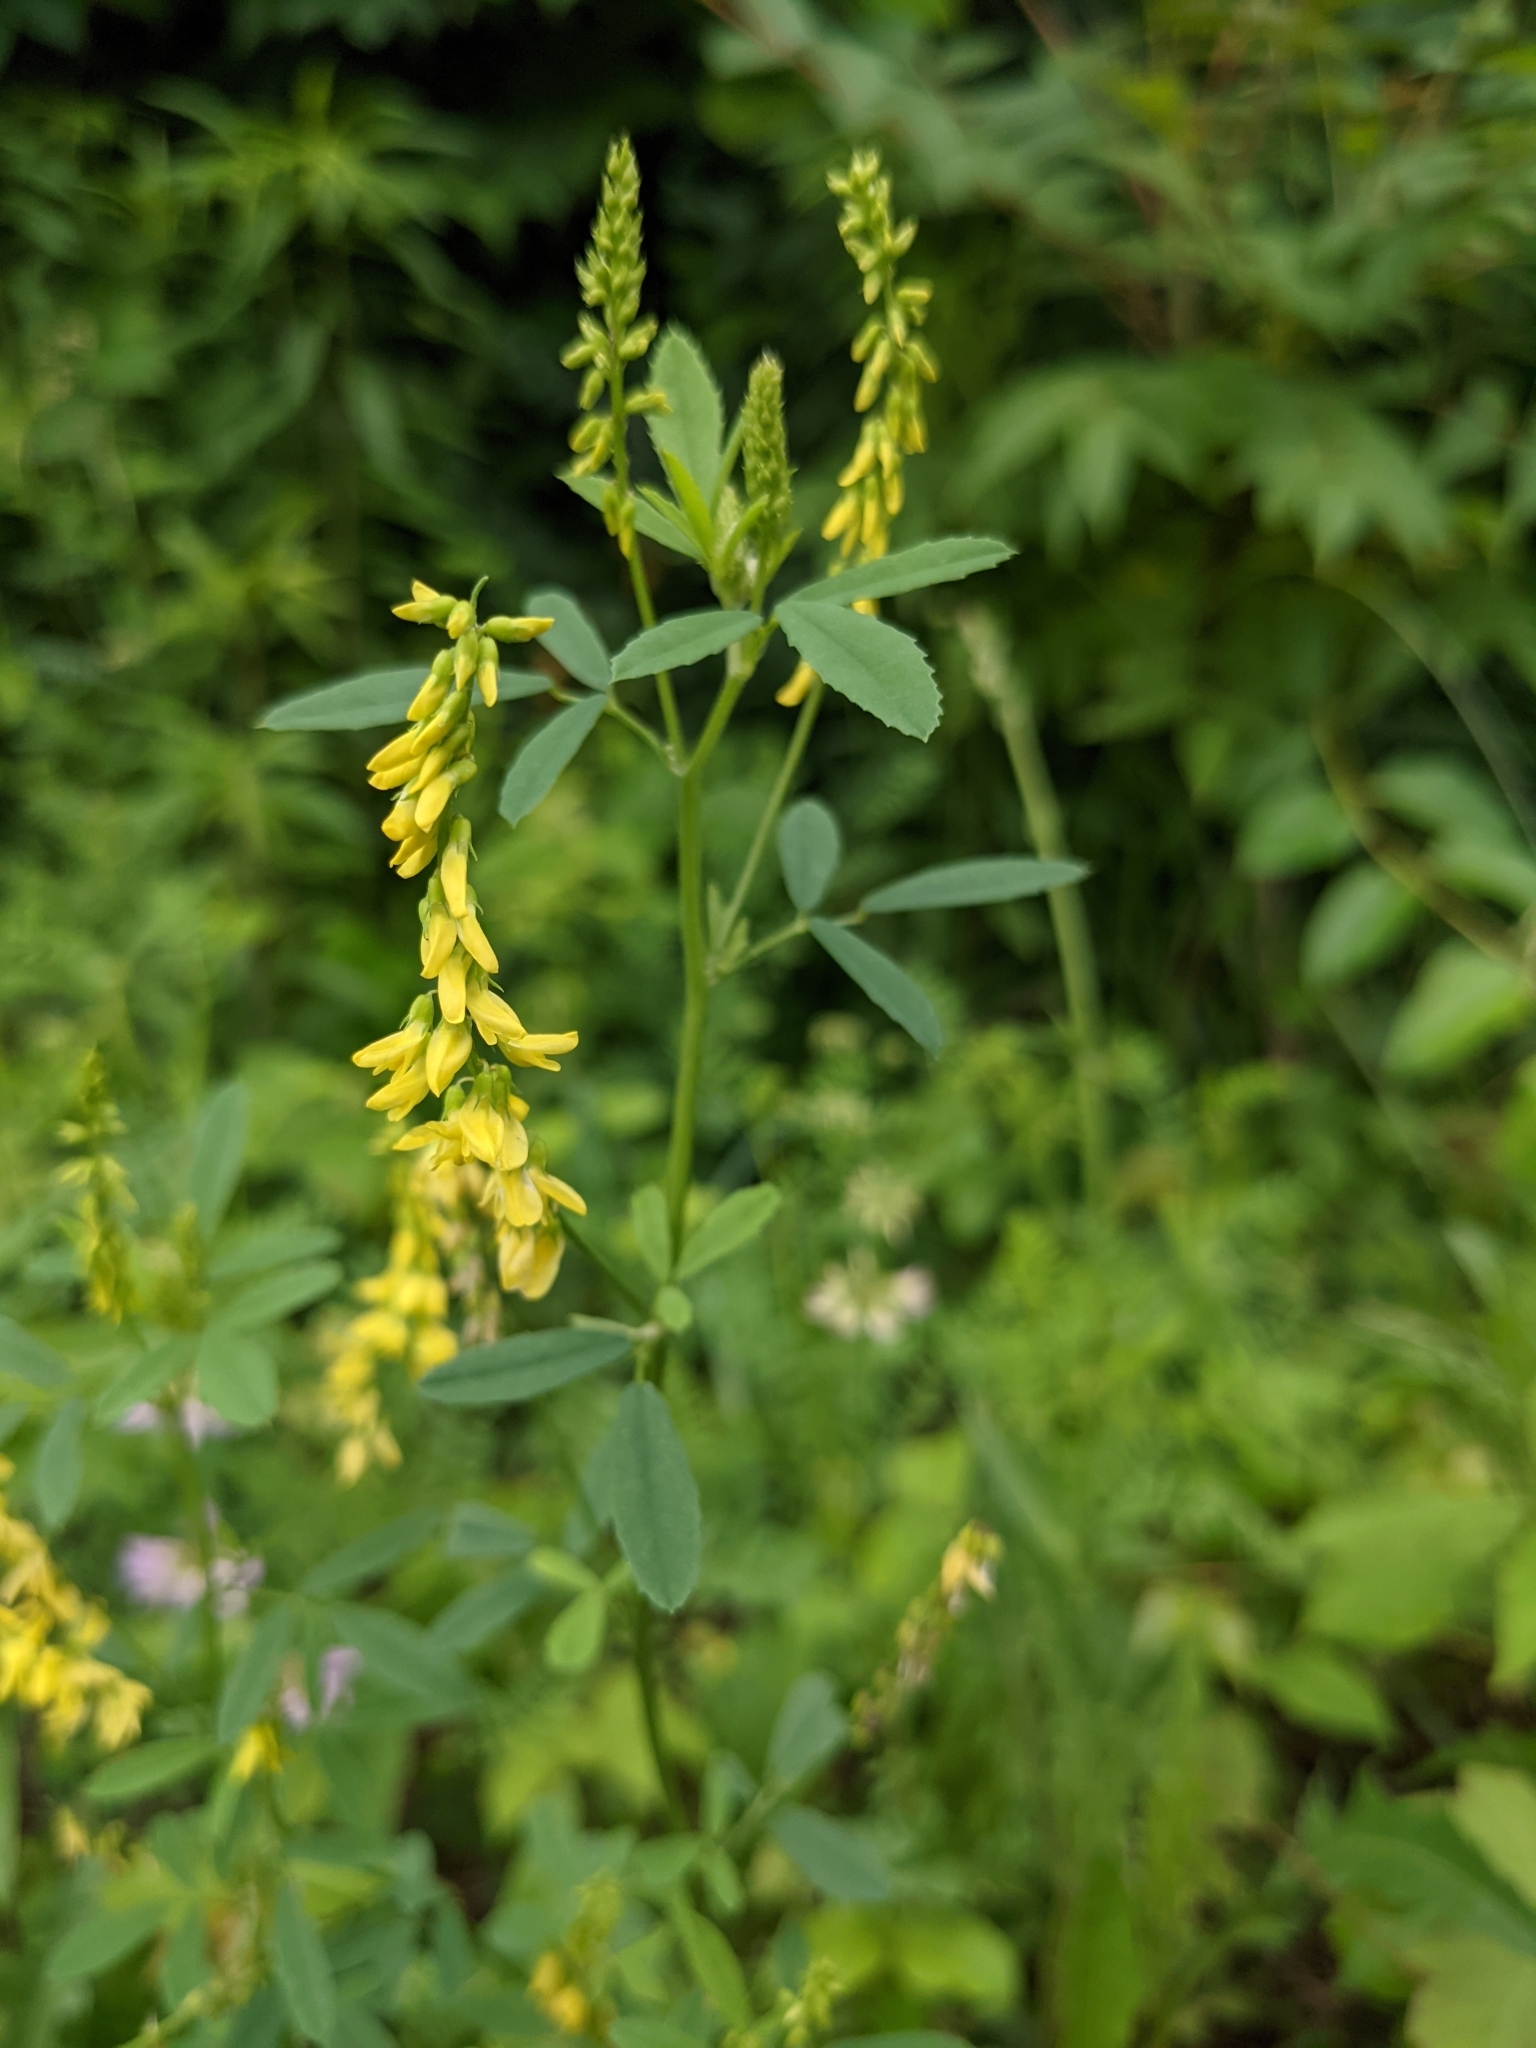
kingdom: Plantae
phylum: Tracheophyta
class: Magnoliopsida
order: Fabales
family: Fabaceae
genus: Melilotus
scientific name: Melilotus officinalis
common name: Sweetclover
